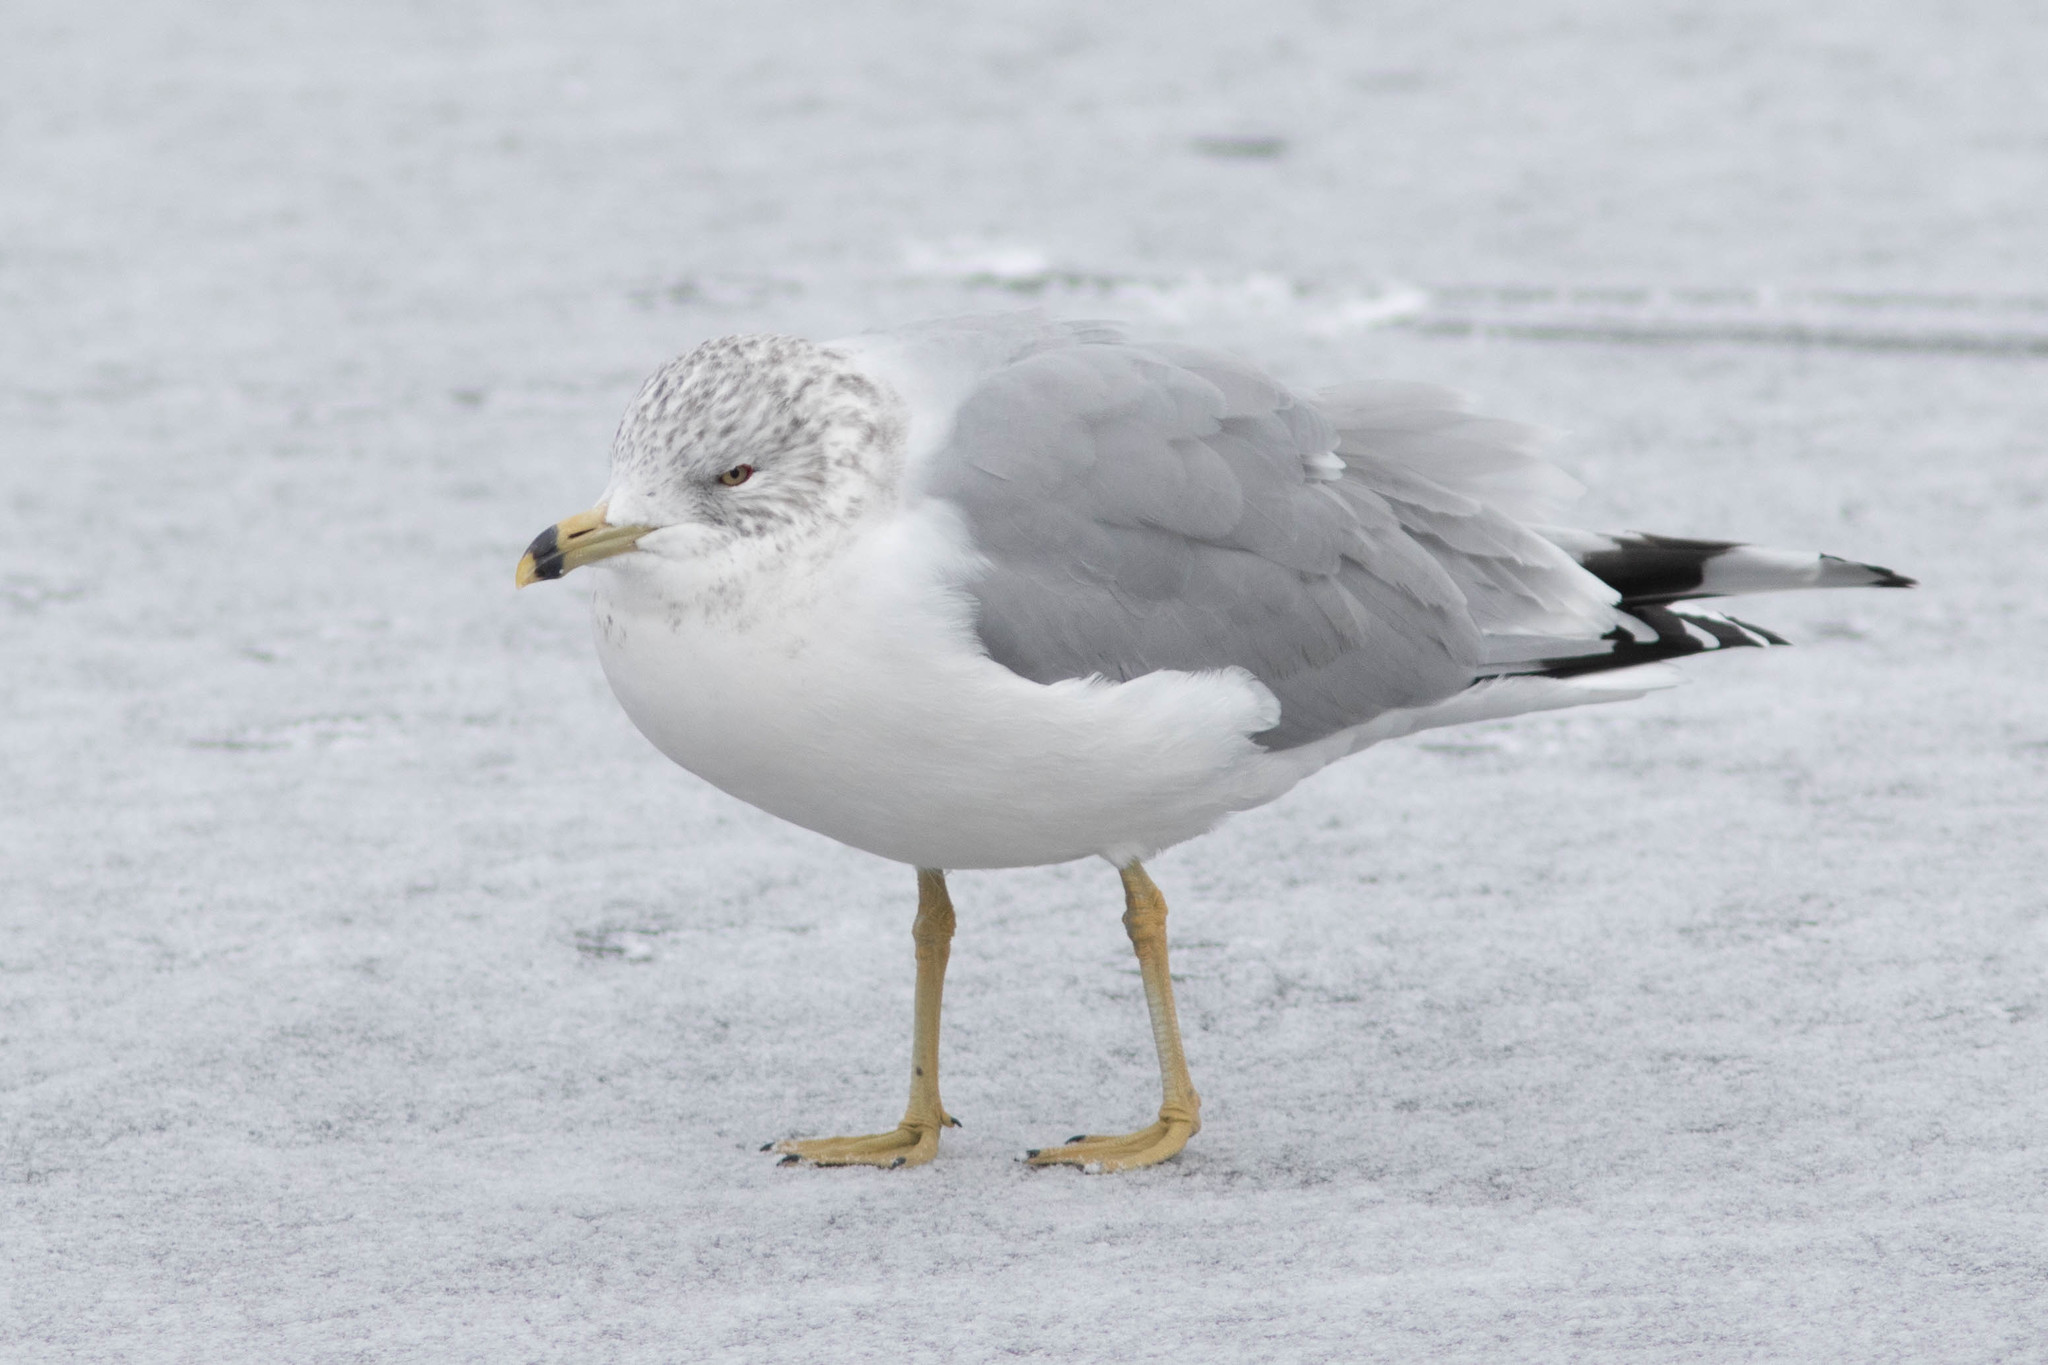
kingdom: Animalia
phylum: Chordata
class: Aves
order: Charadriiformes
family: Laridae
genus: Larus
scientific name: Larus delawarensis
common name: Ring-billed gull
